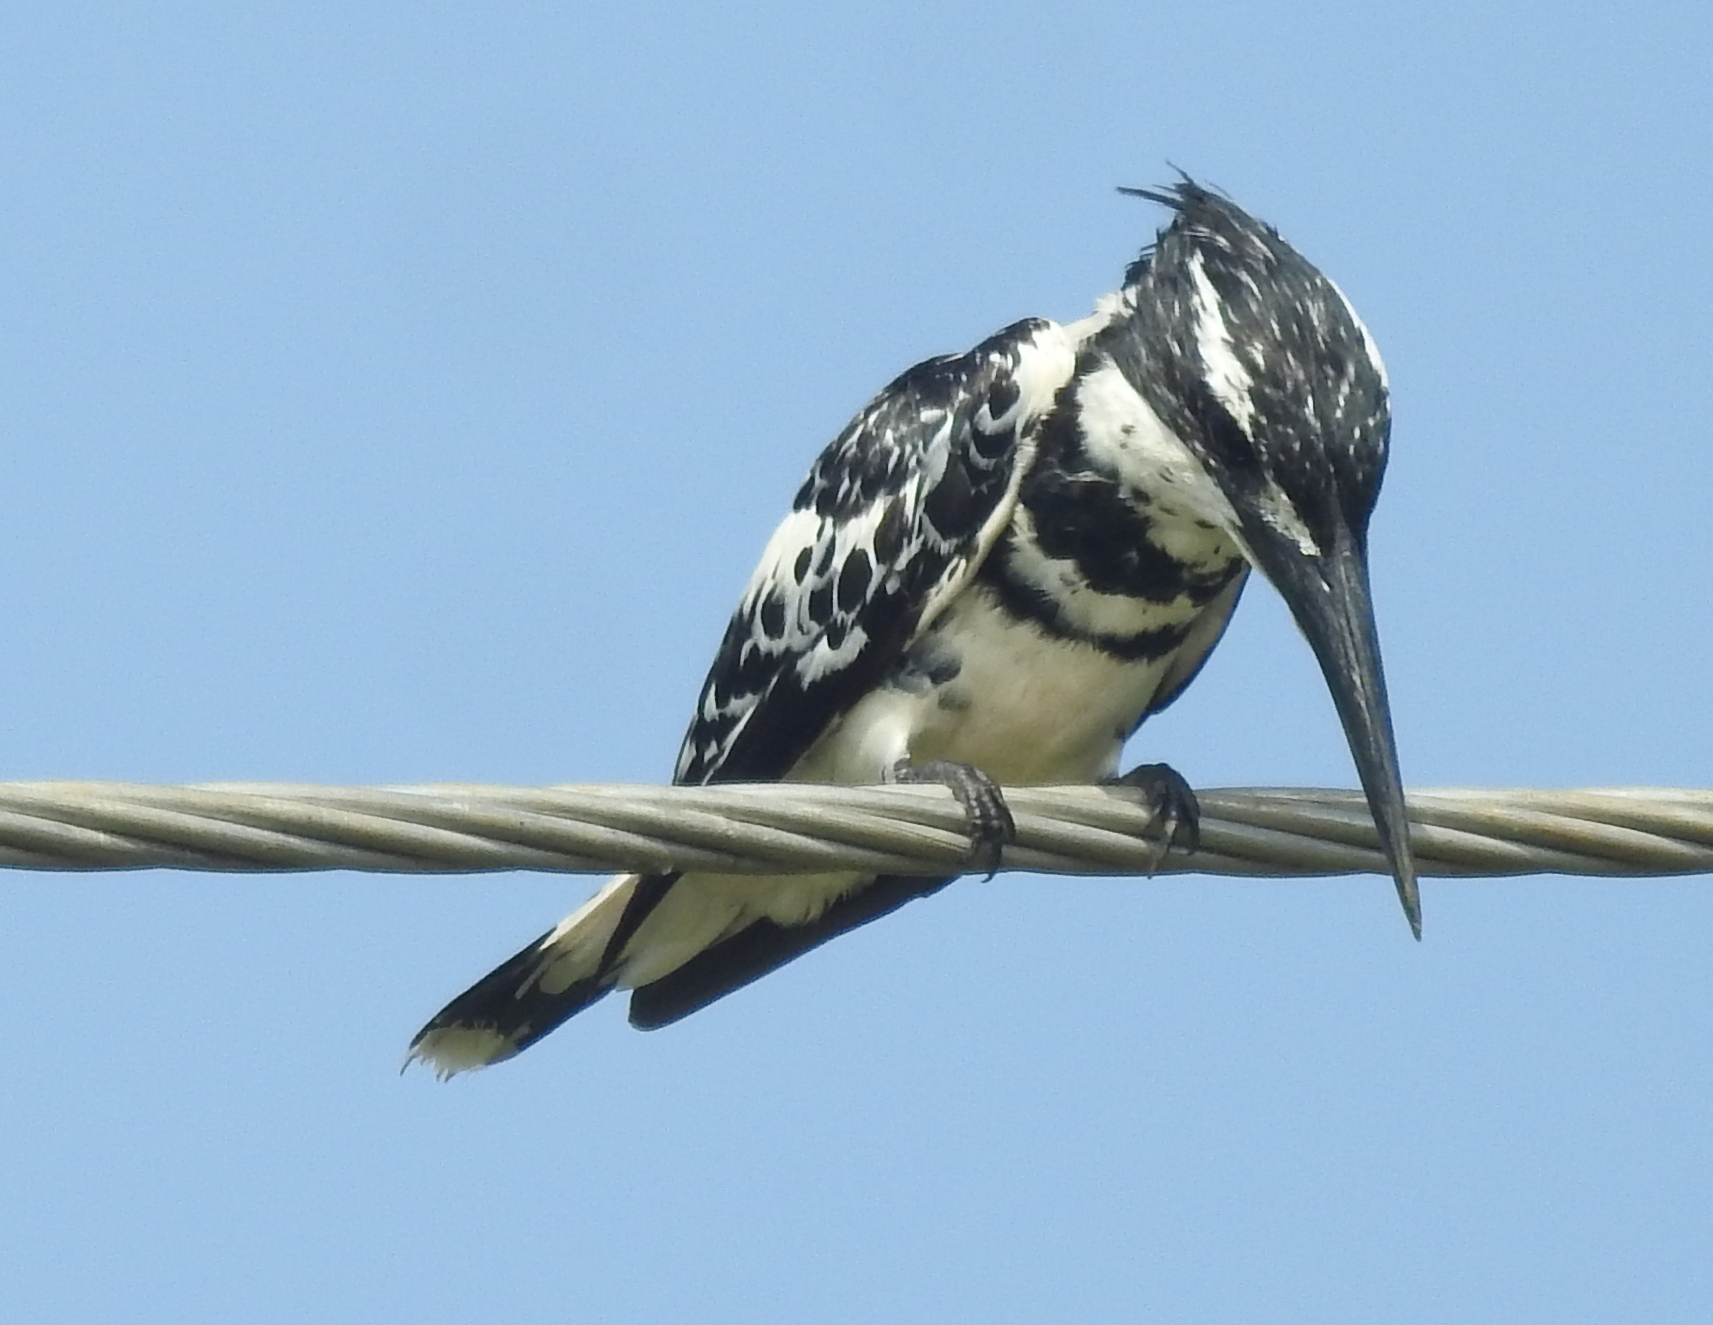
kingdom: Animalia
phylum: Chordata
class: Aves
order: Coraciiformes
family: Alcedinidae
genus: Ceryle
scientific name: Ceryle rudis
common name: Pied kingfisher
